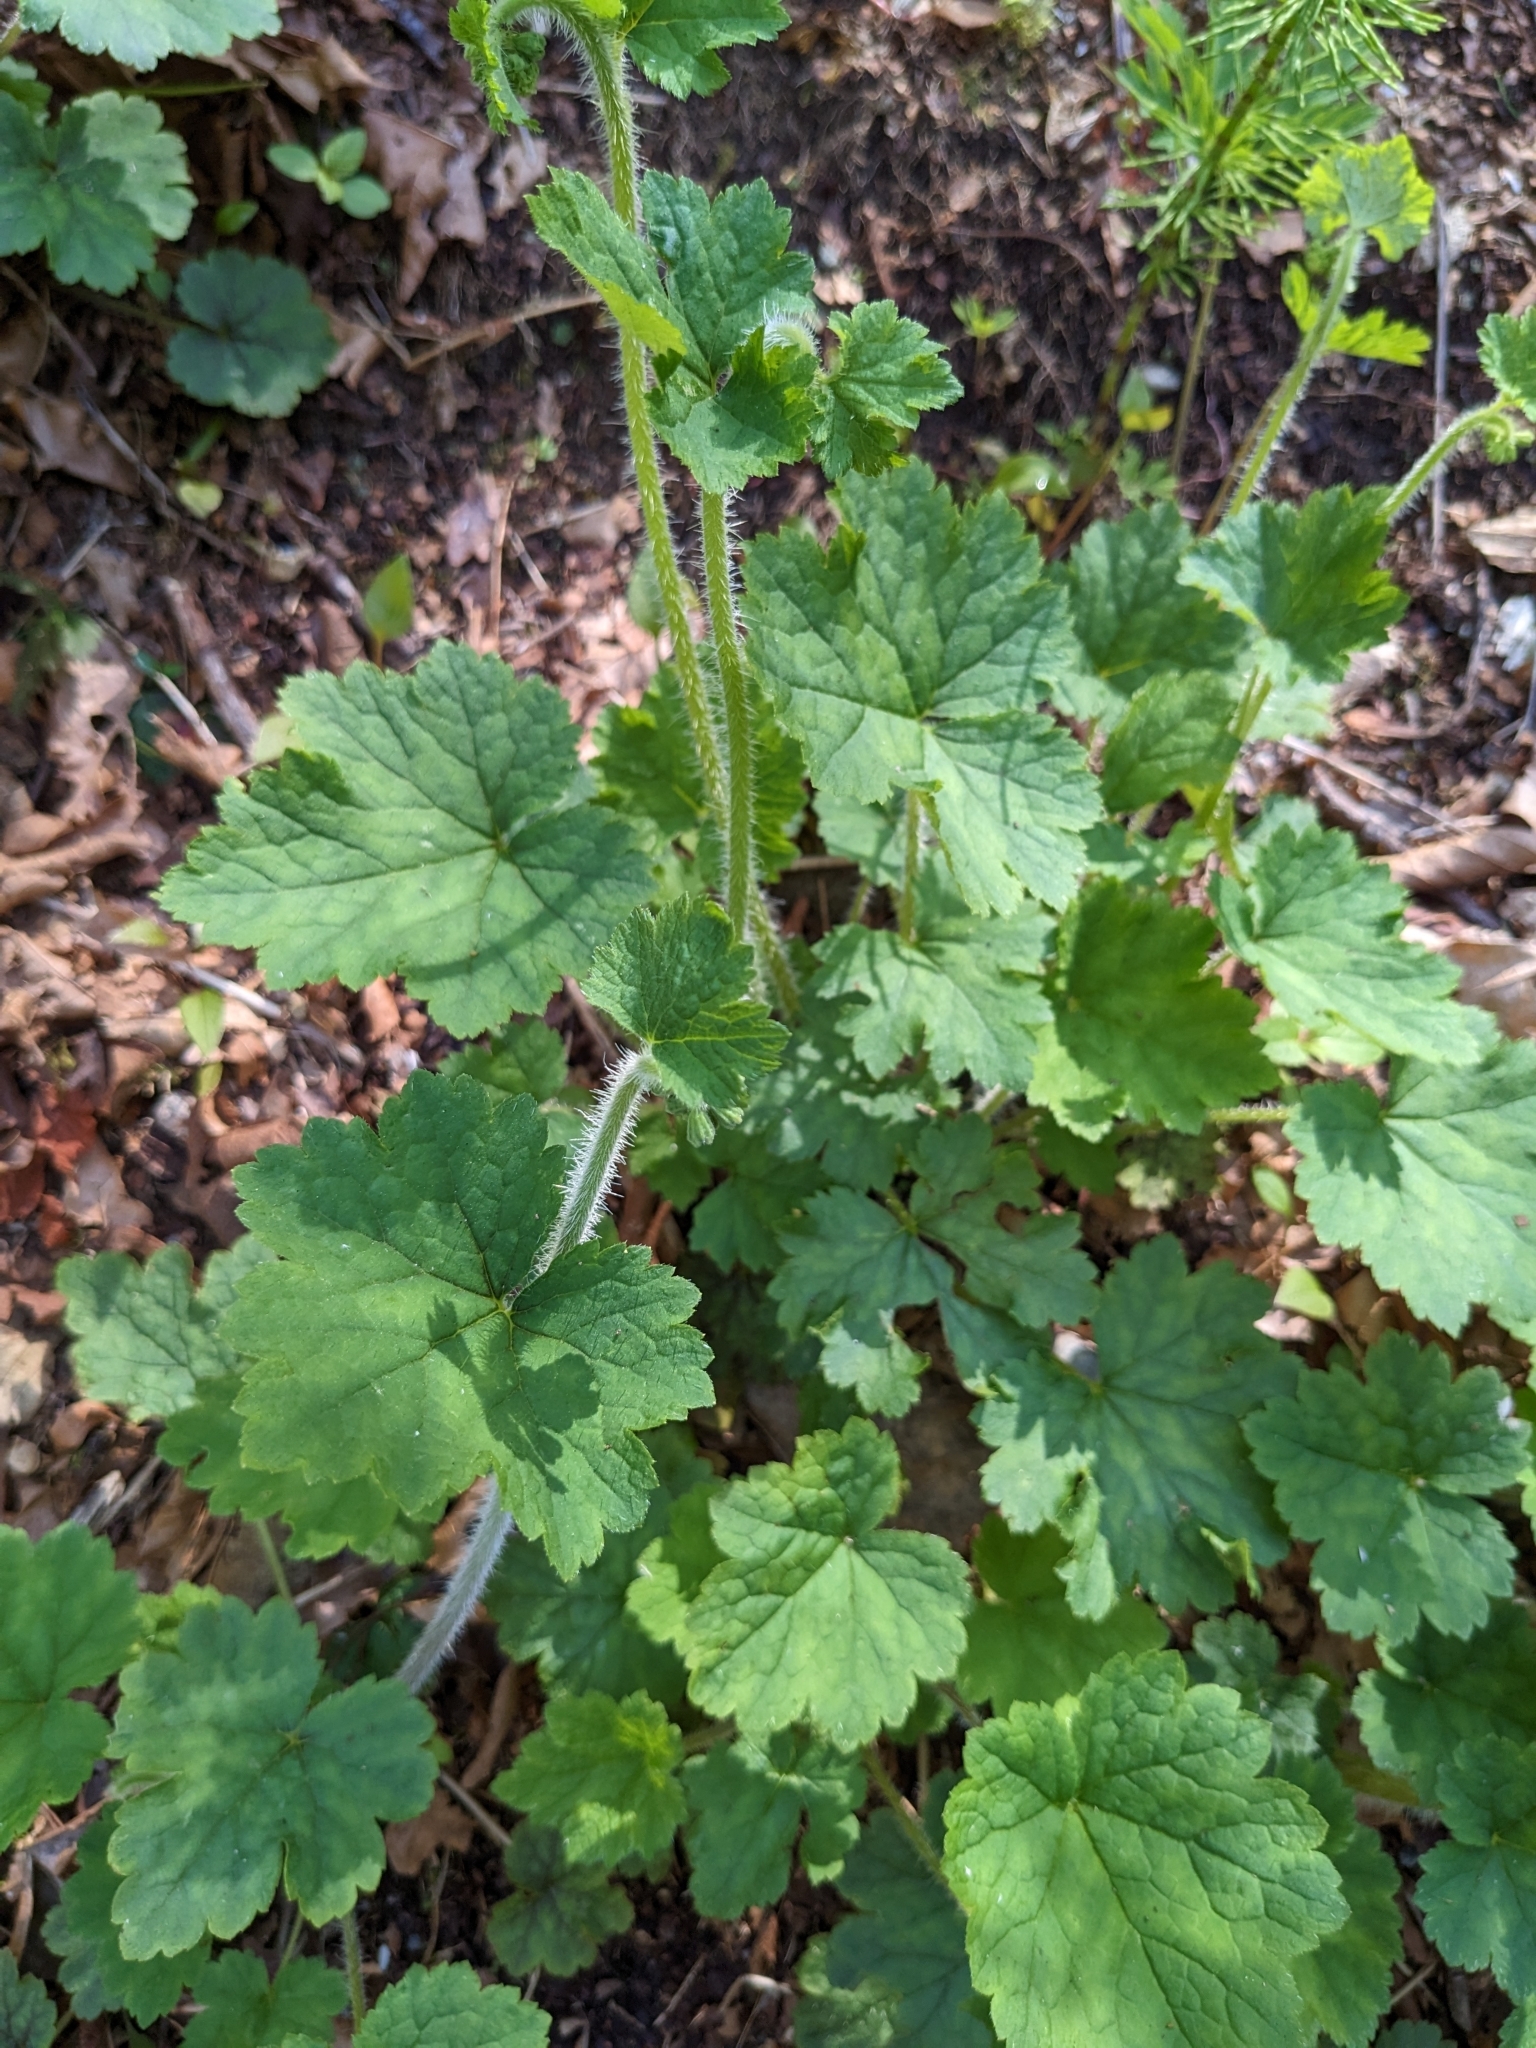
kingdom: Plantae
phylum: Tracheophyta
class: Magnoliopsida
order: Saxifragales
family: Saxifragaceae
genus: Tellima
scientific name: Tellima grandiflora
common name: Fringecups
